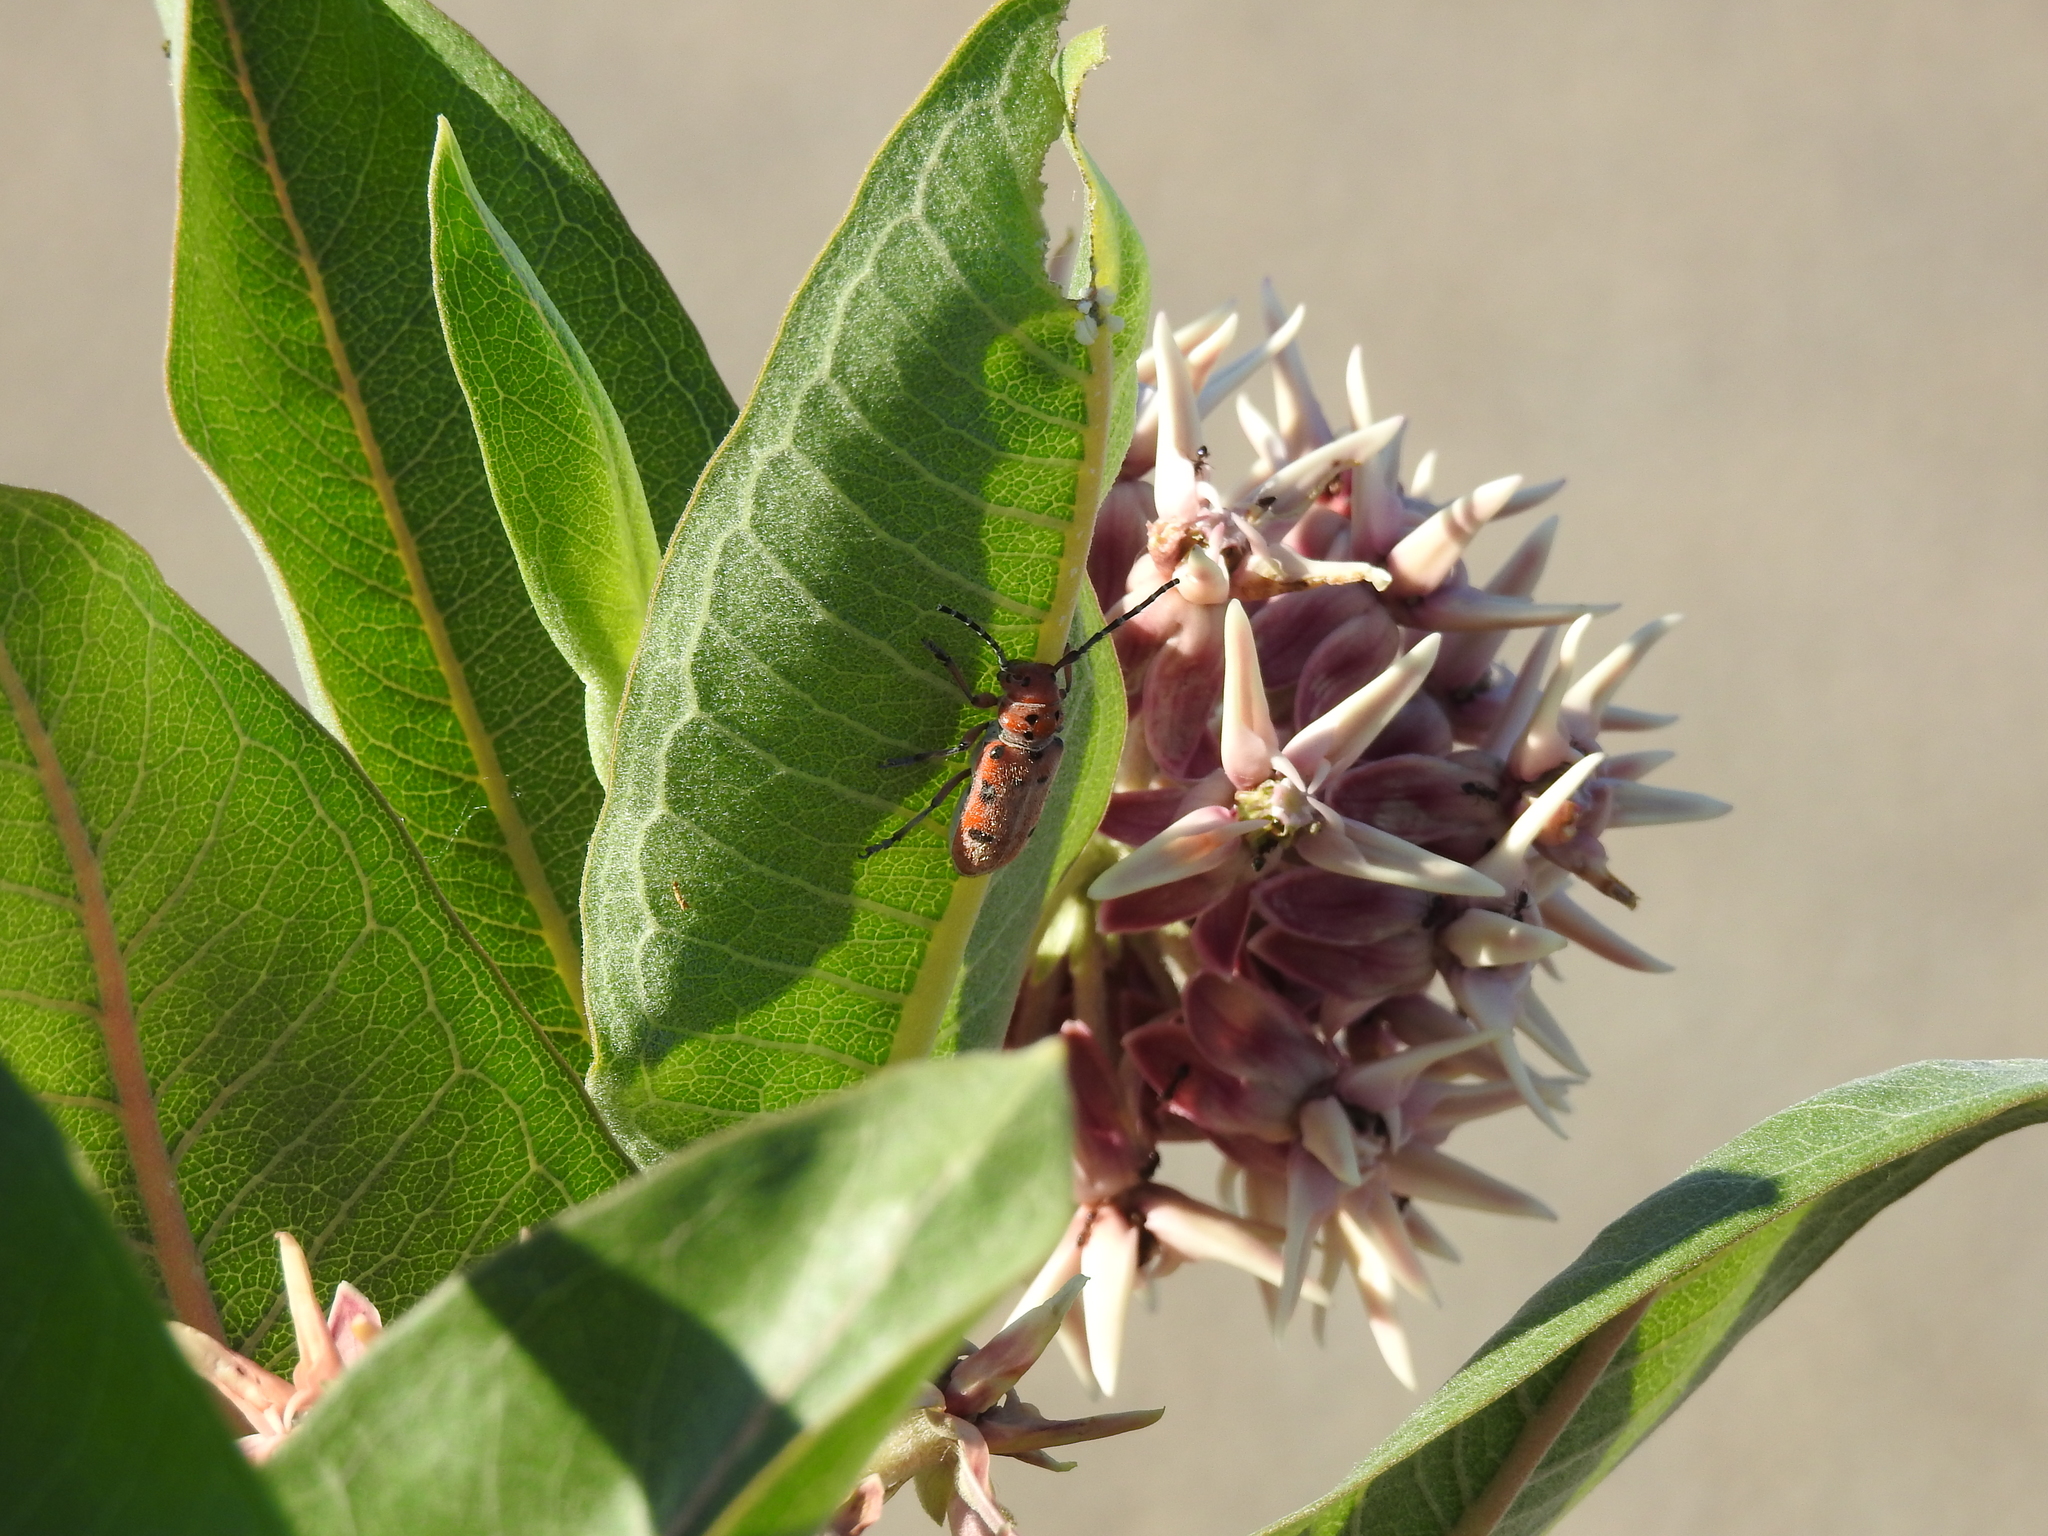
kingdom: Animalia
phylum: Arthropoda
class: Insecta
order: Coleoptera
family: Cerambycidae
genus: Tetraopes
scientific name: Tetraopes femoratus
